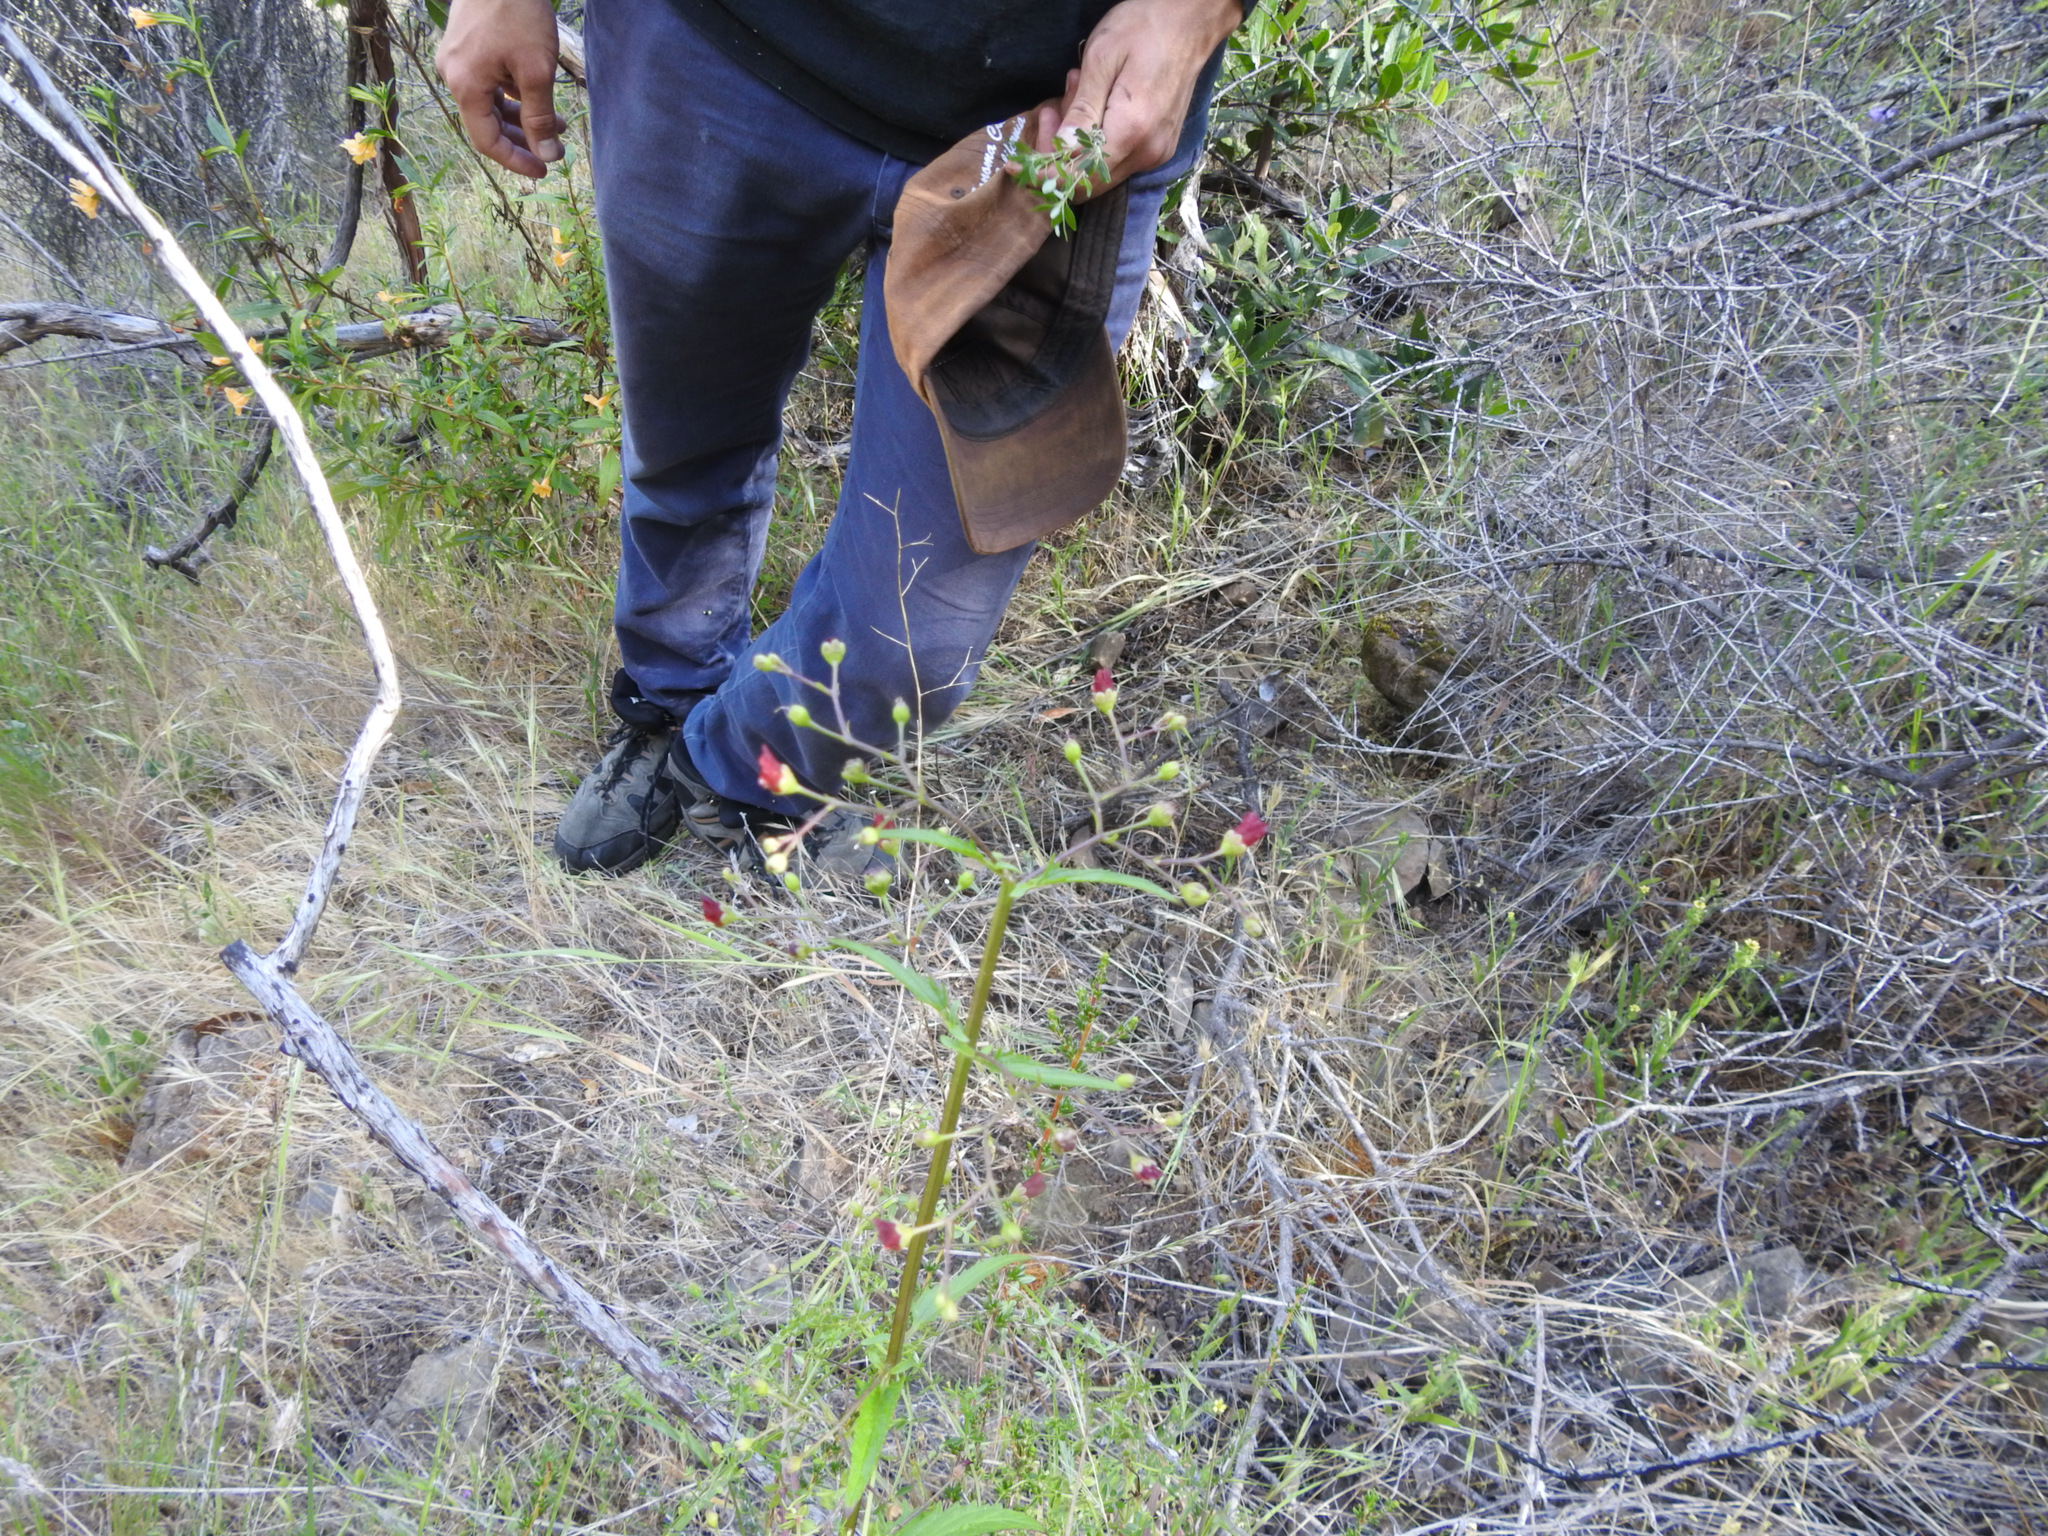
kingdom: Plantae
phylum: Tracheophyta
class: Magnoliopsida
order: Lamiales
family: Scrophulariaceae
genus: Scrophularia
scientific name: Scrophularia californica
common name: California figwort
